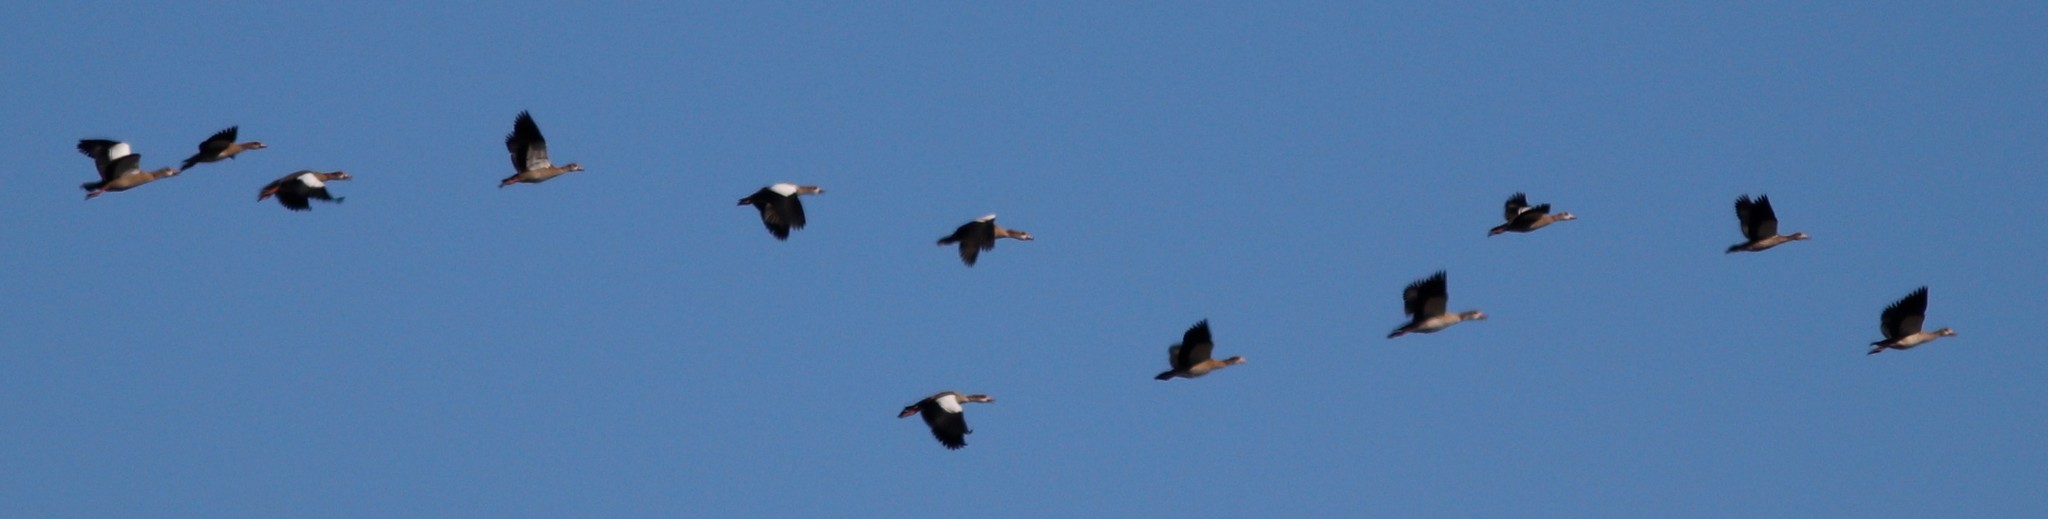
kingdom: Animalia
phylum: Chordata
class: Aves
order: Anseriformes
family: Anatidae
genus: Alopochen
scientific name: Alopochen aegyptiaca
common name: Egyptian goose
